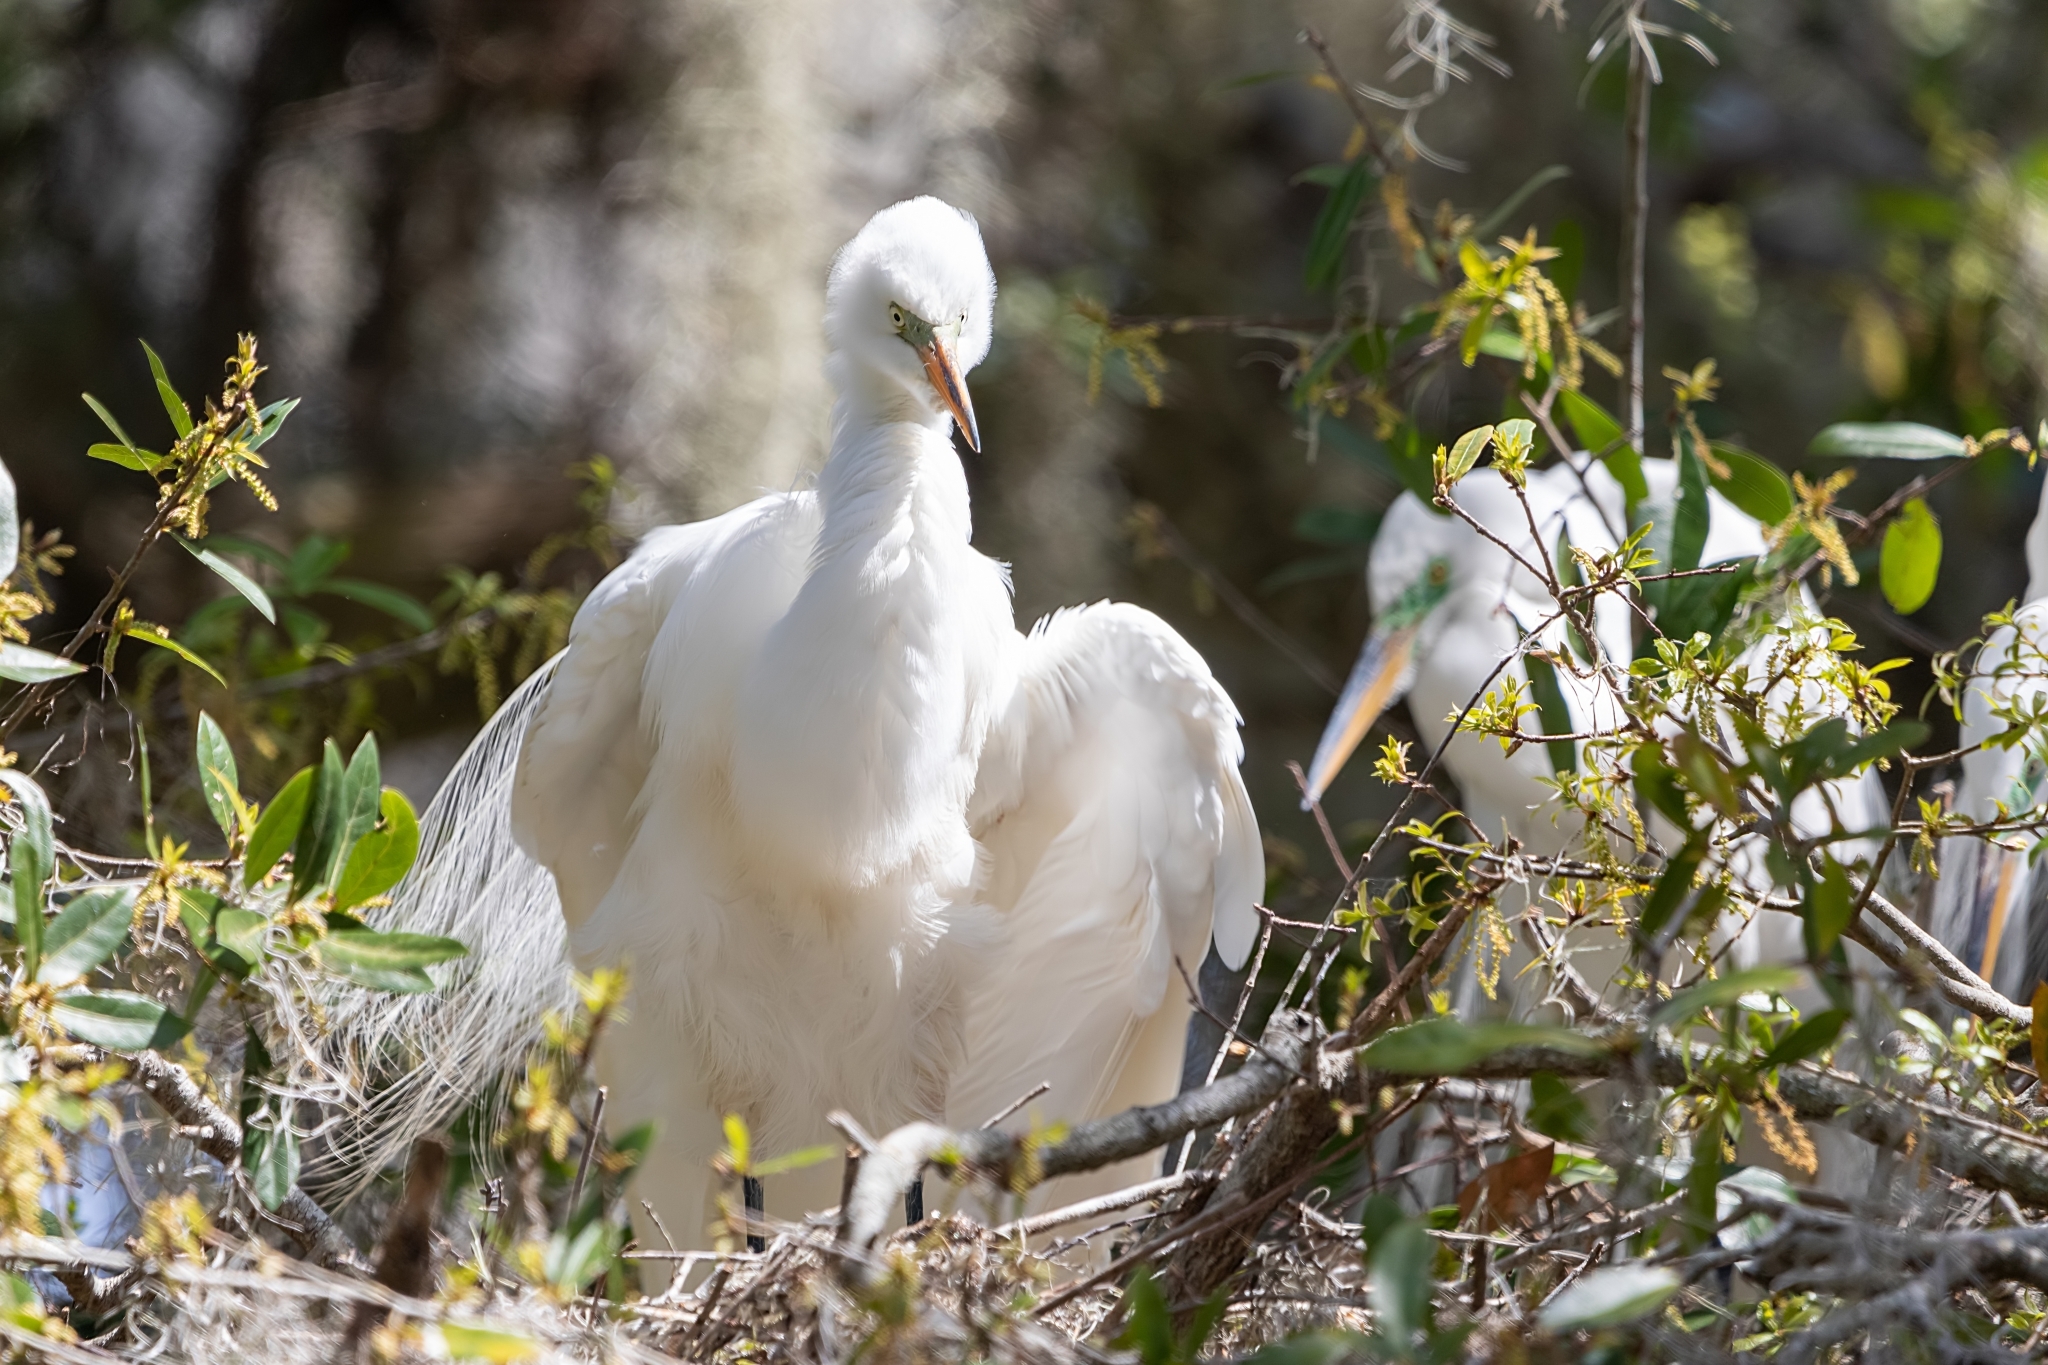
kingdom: Animalia
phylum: Chordata
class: Aves
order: Pelecaniformes
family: Ardeidae
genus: Ardea
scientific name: Ardea alba
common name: Great egret
